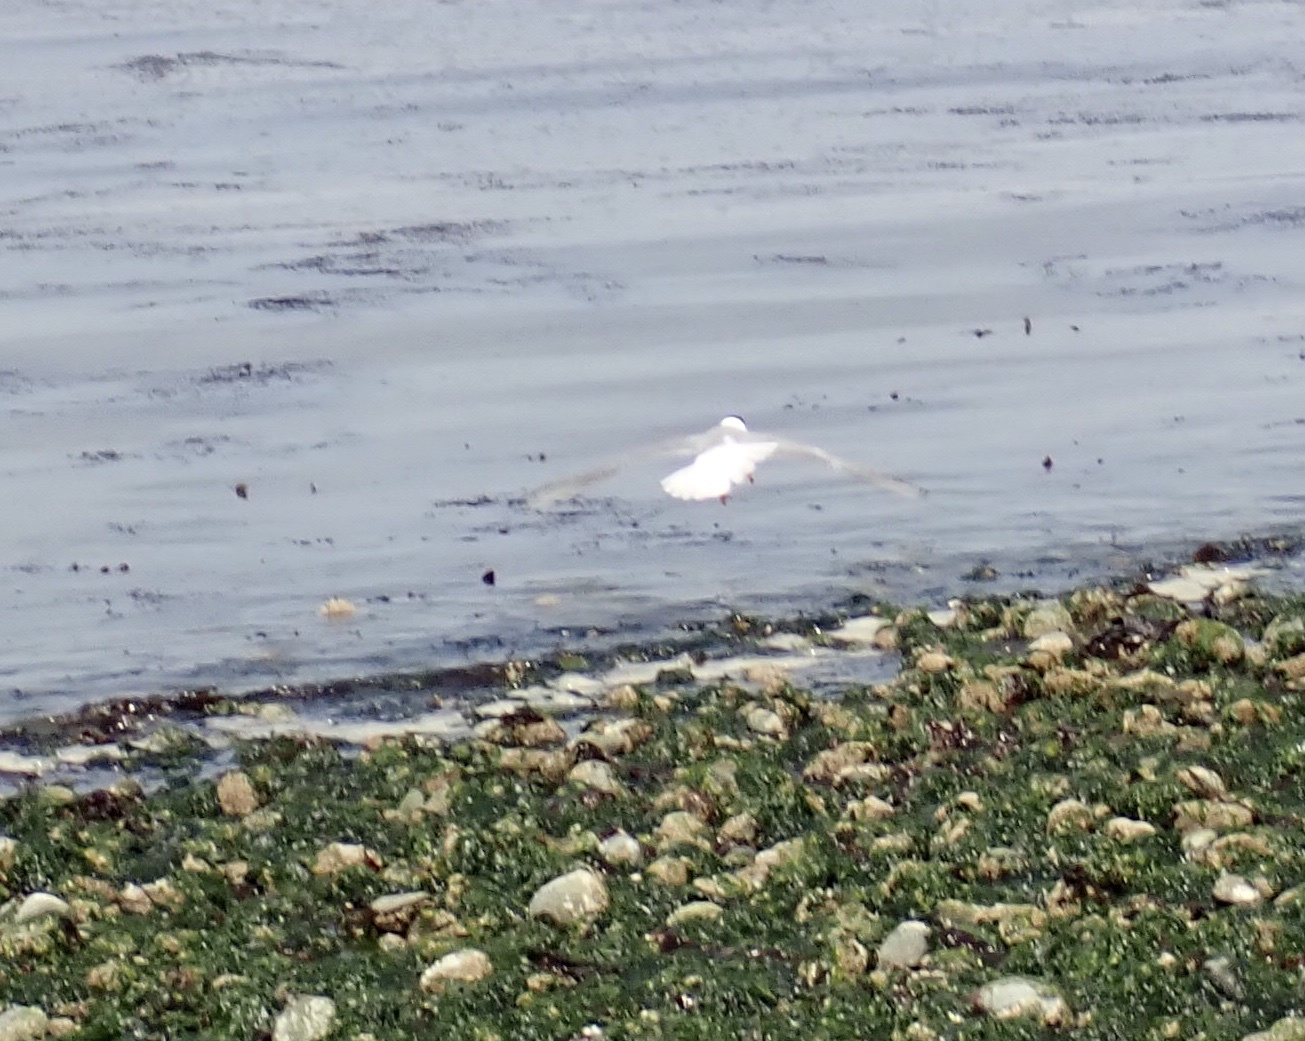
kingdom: Animalia
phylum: Chordata
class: Aves
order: Charadriiformes
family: Laridae
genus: Chroicocephalus
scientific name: Chroicocephalus philadelphia
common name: Bonaparte's gull
